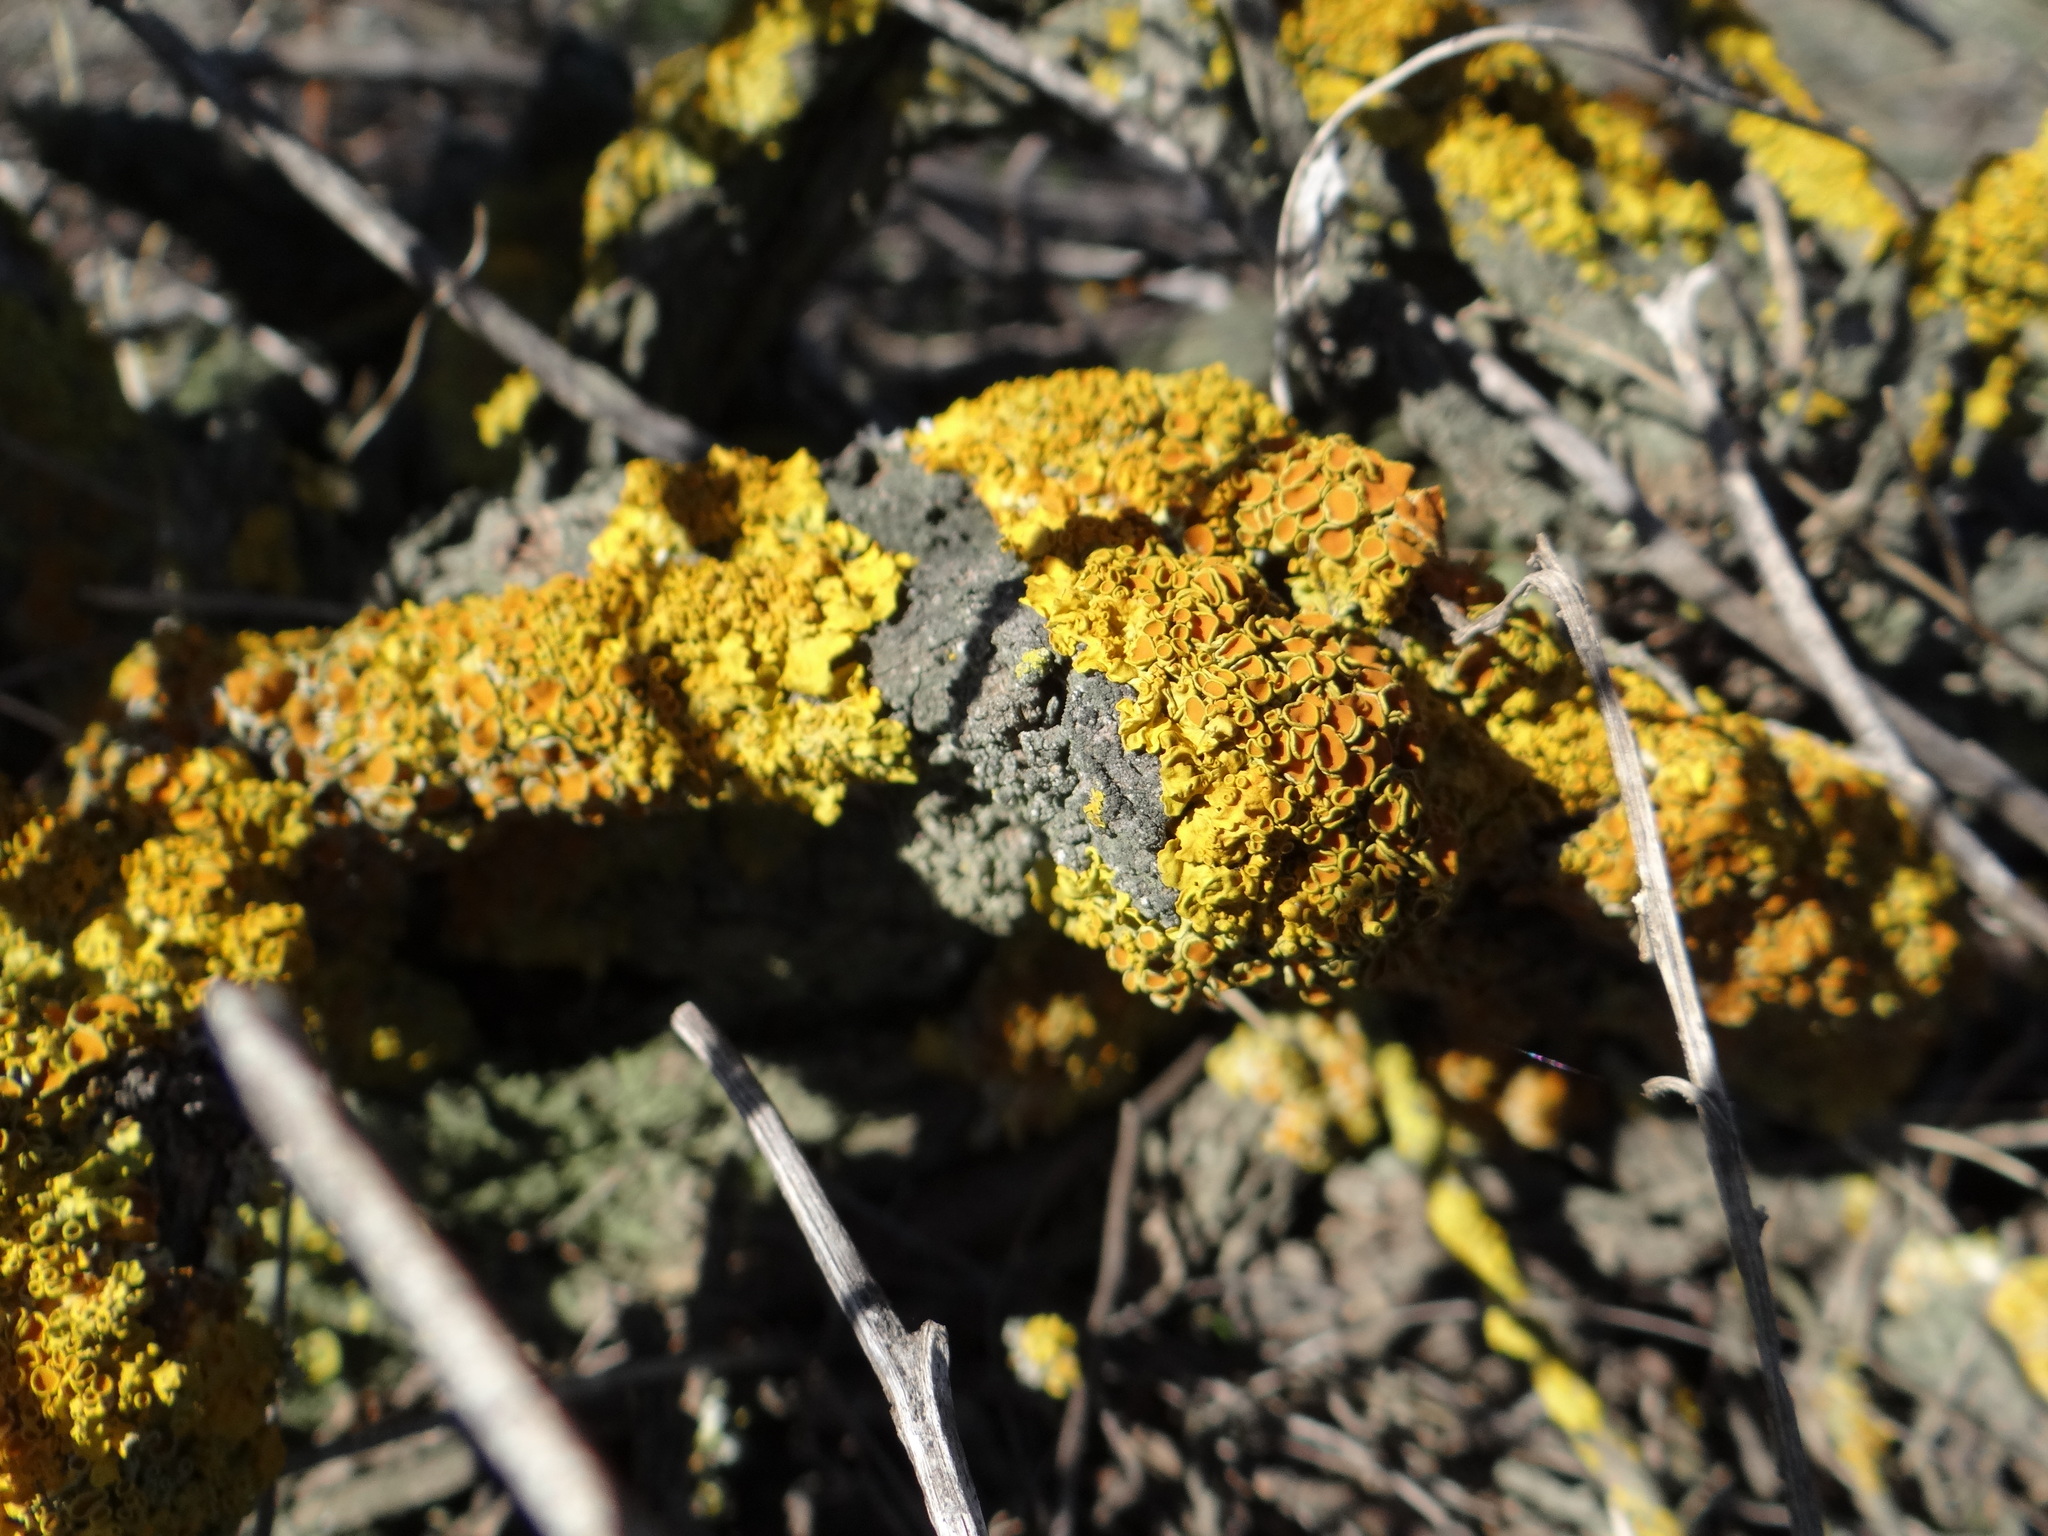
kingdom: Fungi
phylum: Ascomycota
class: Lecanoromycetes
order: Teloschistales
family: Teloschistaceae
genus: Xanthoria
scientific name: Xanthoria parietina
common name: Common orange lichen
